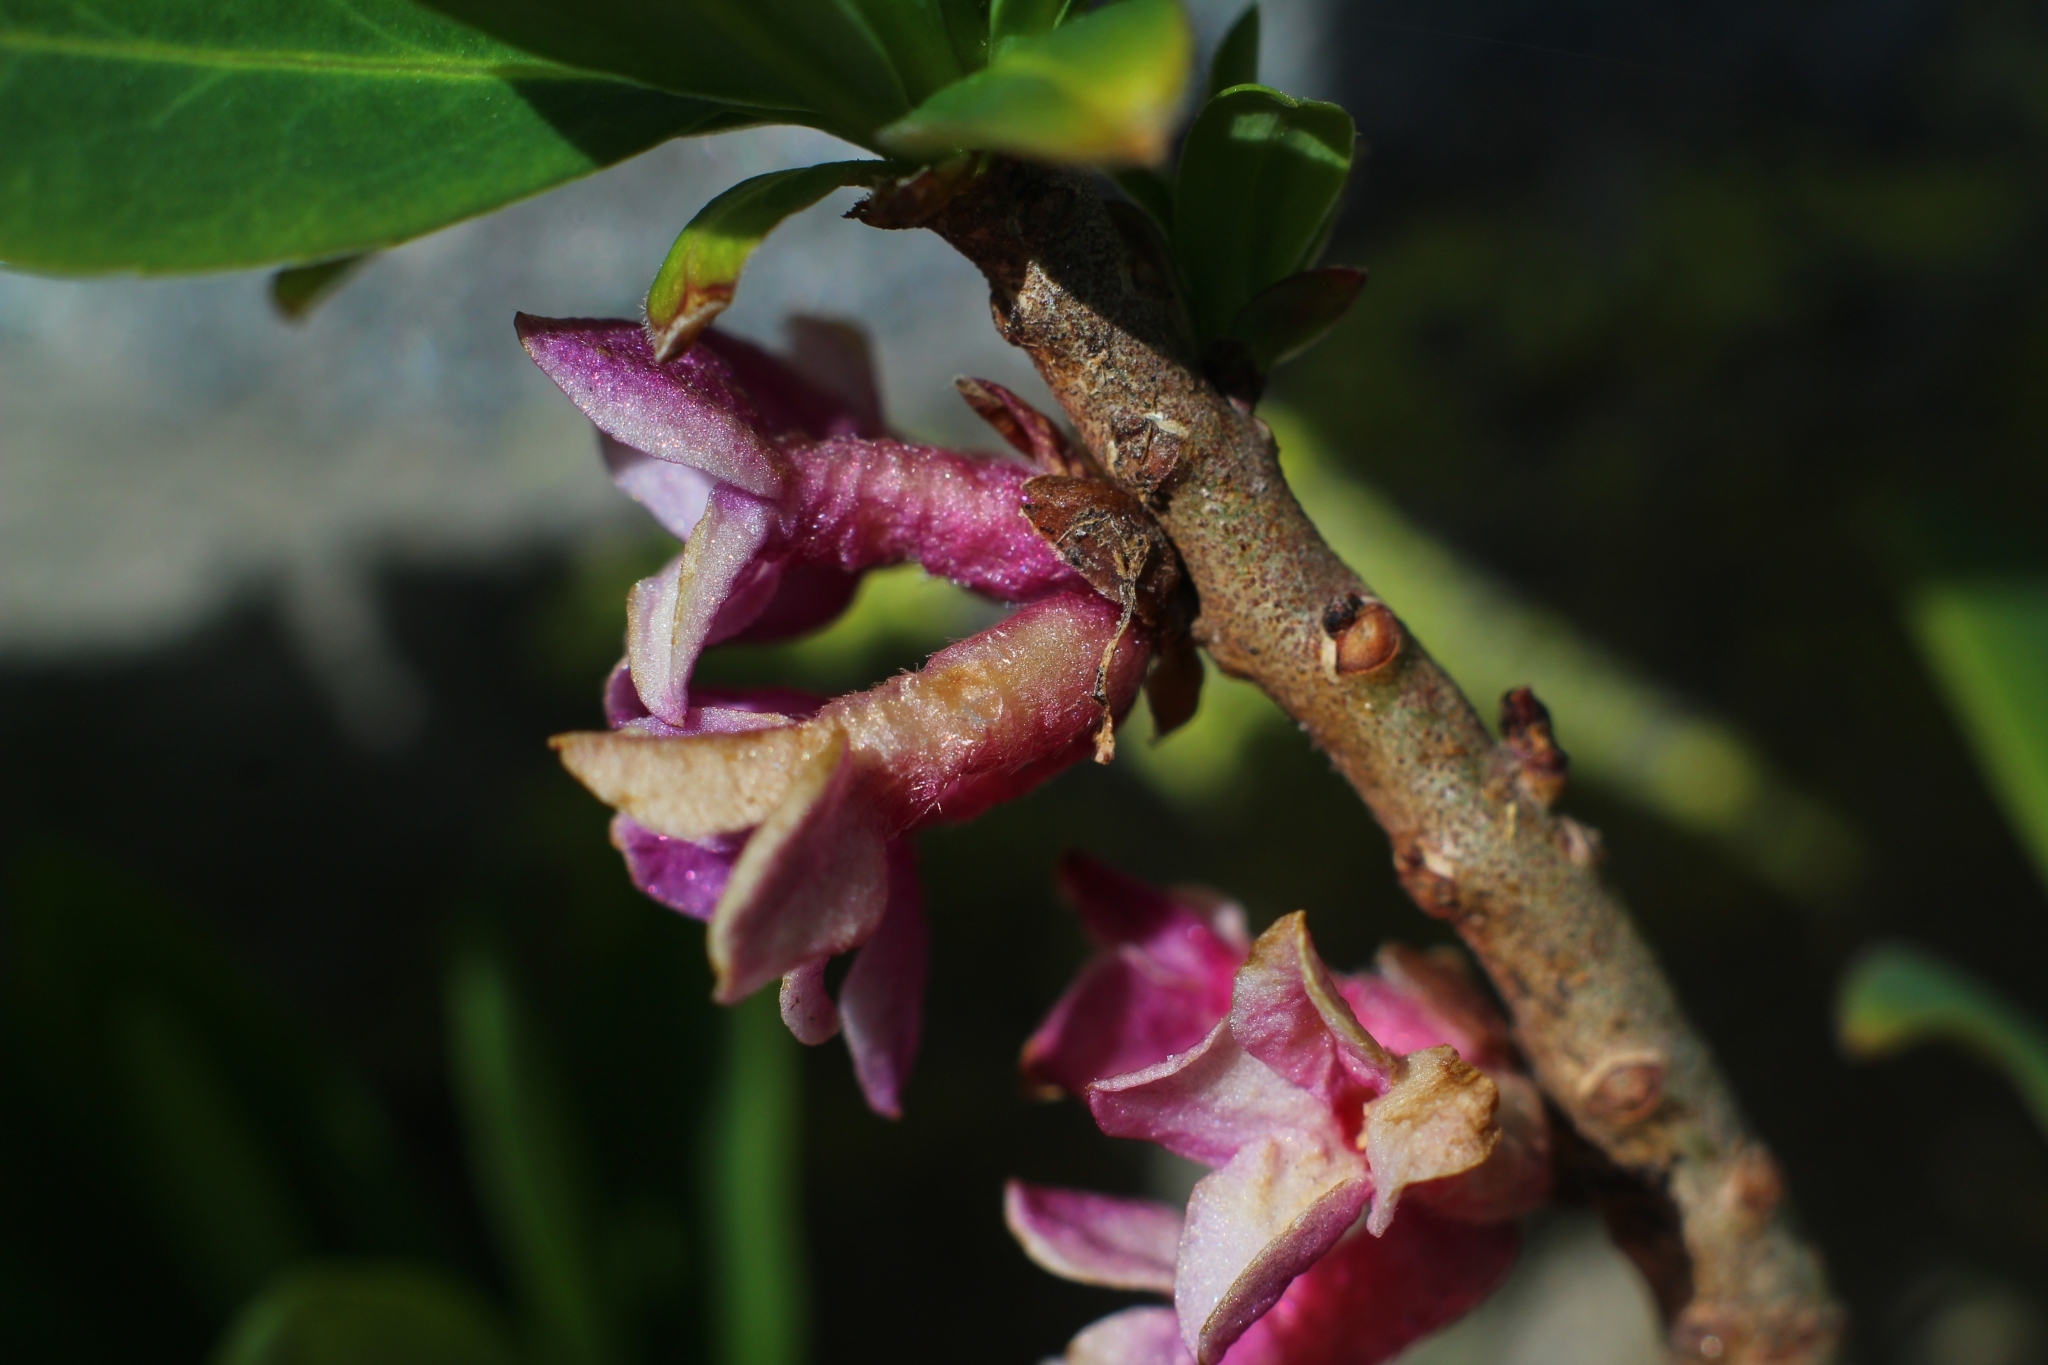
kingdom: Plantae
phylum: Tracheophyta
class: Magnoliopsida
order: Malvales
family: Thymelaeaceae
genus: Daphne
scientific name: Daphne mezereum
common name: Mezereon
